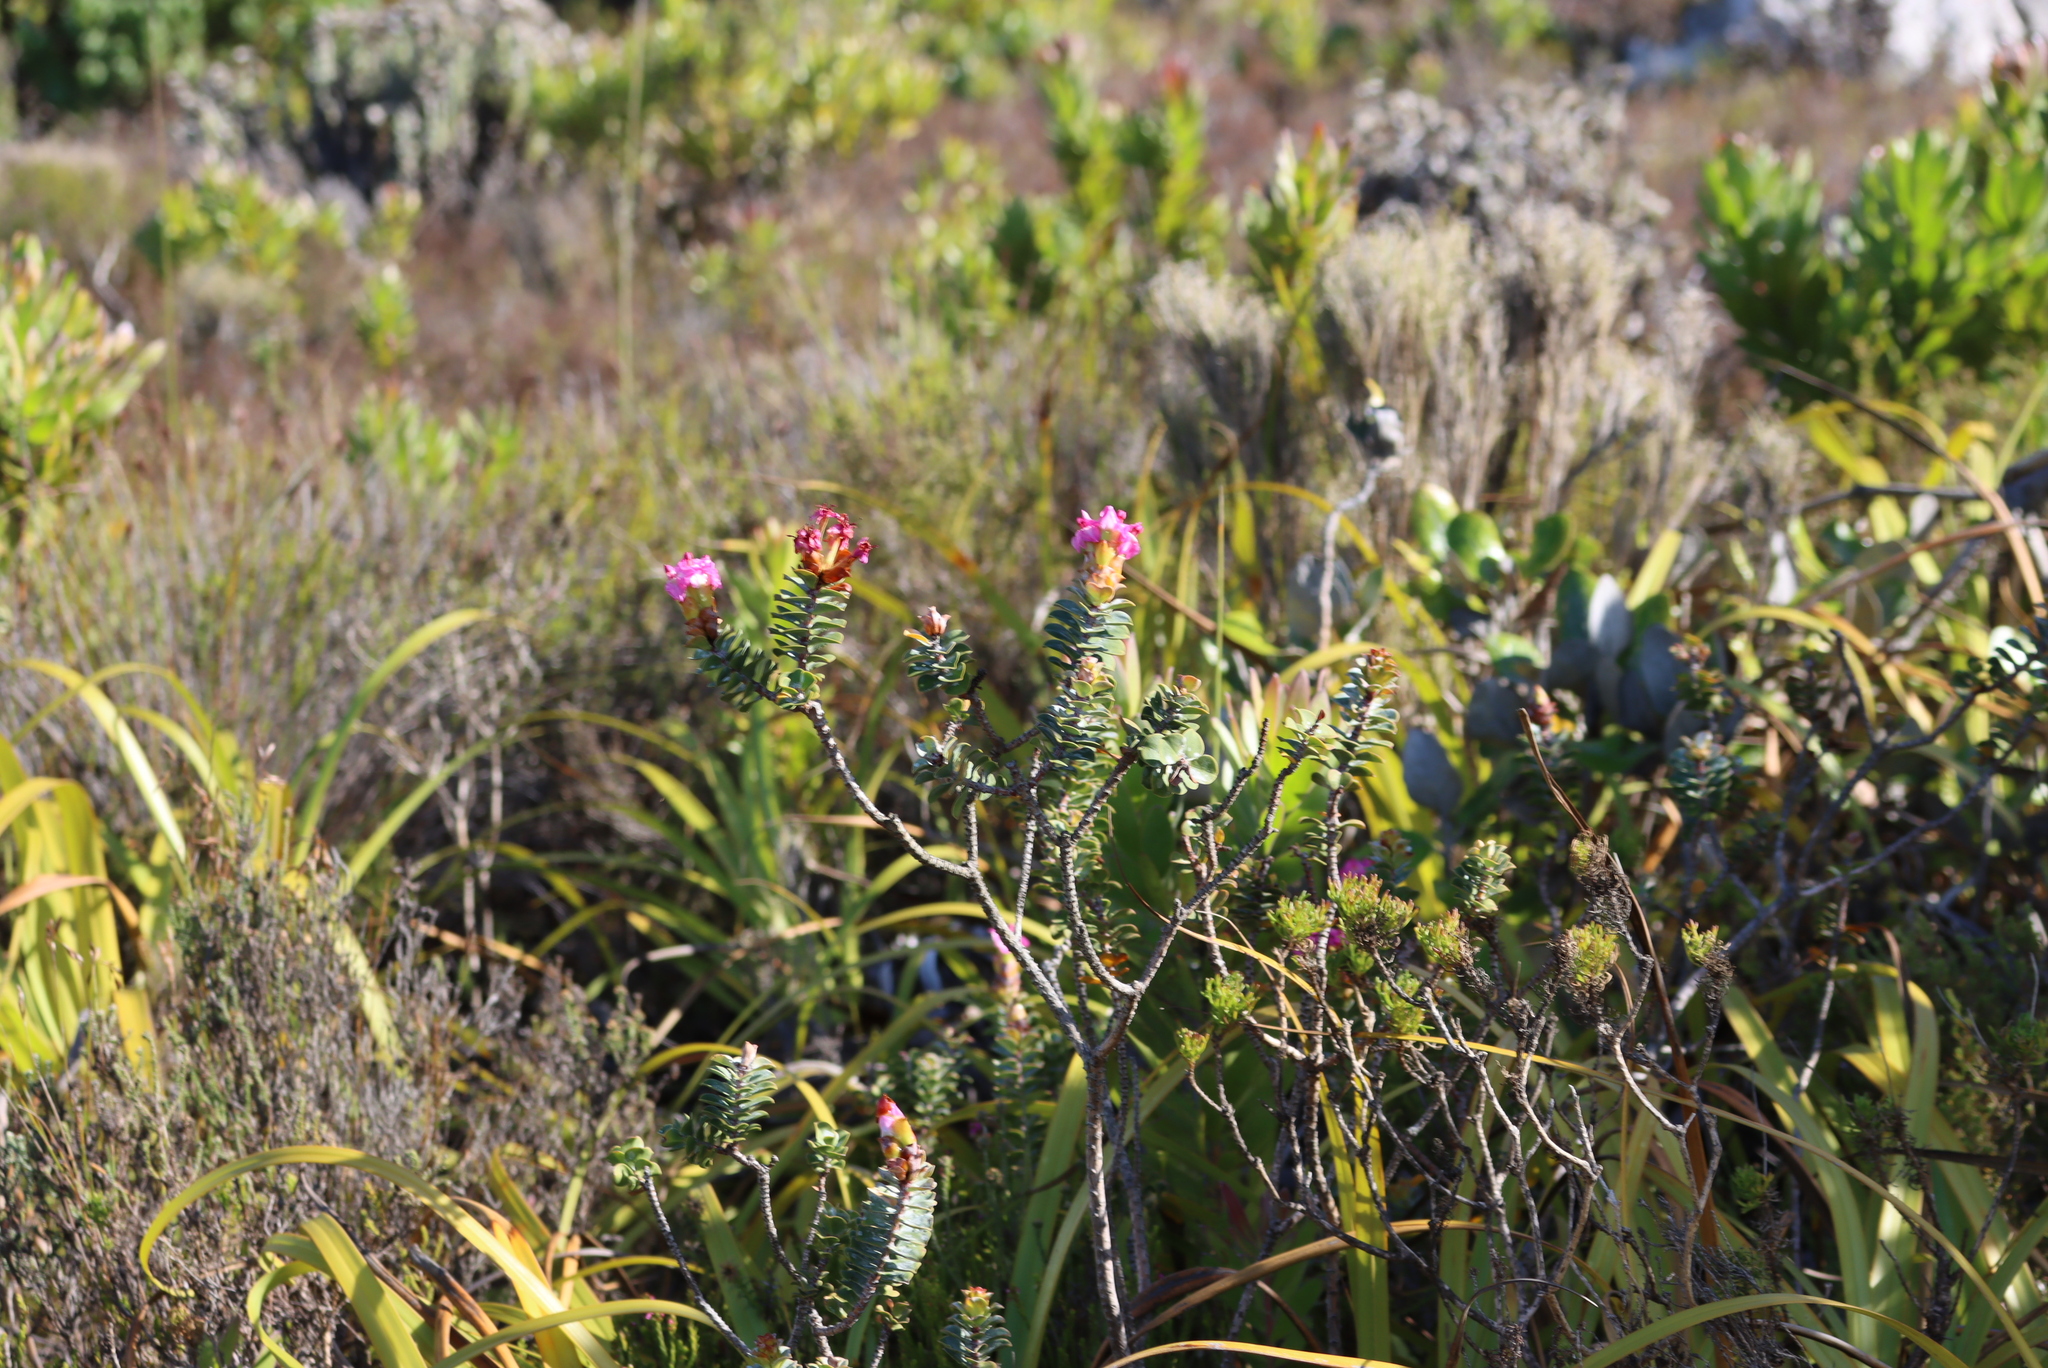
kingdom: Plantae
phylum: Tracheophyta
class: Magnoliopsida
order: Myrtales
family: Penaeaceae
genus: Saltera
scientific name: Saltera sarcocolla
